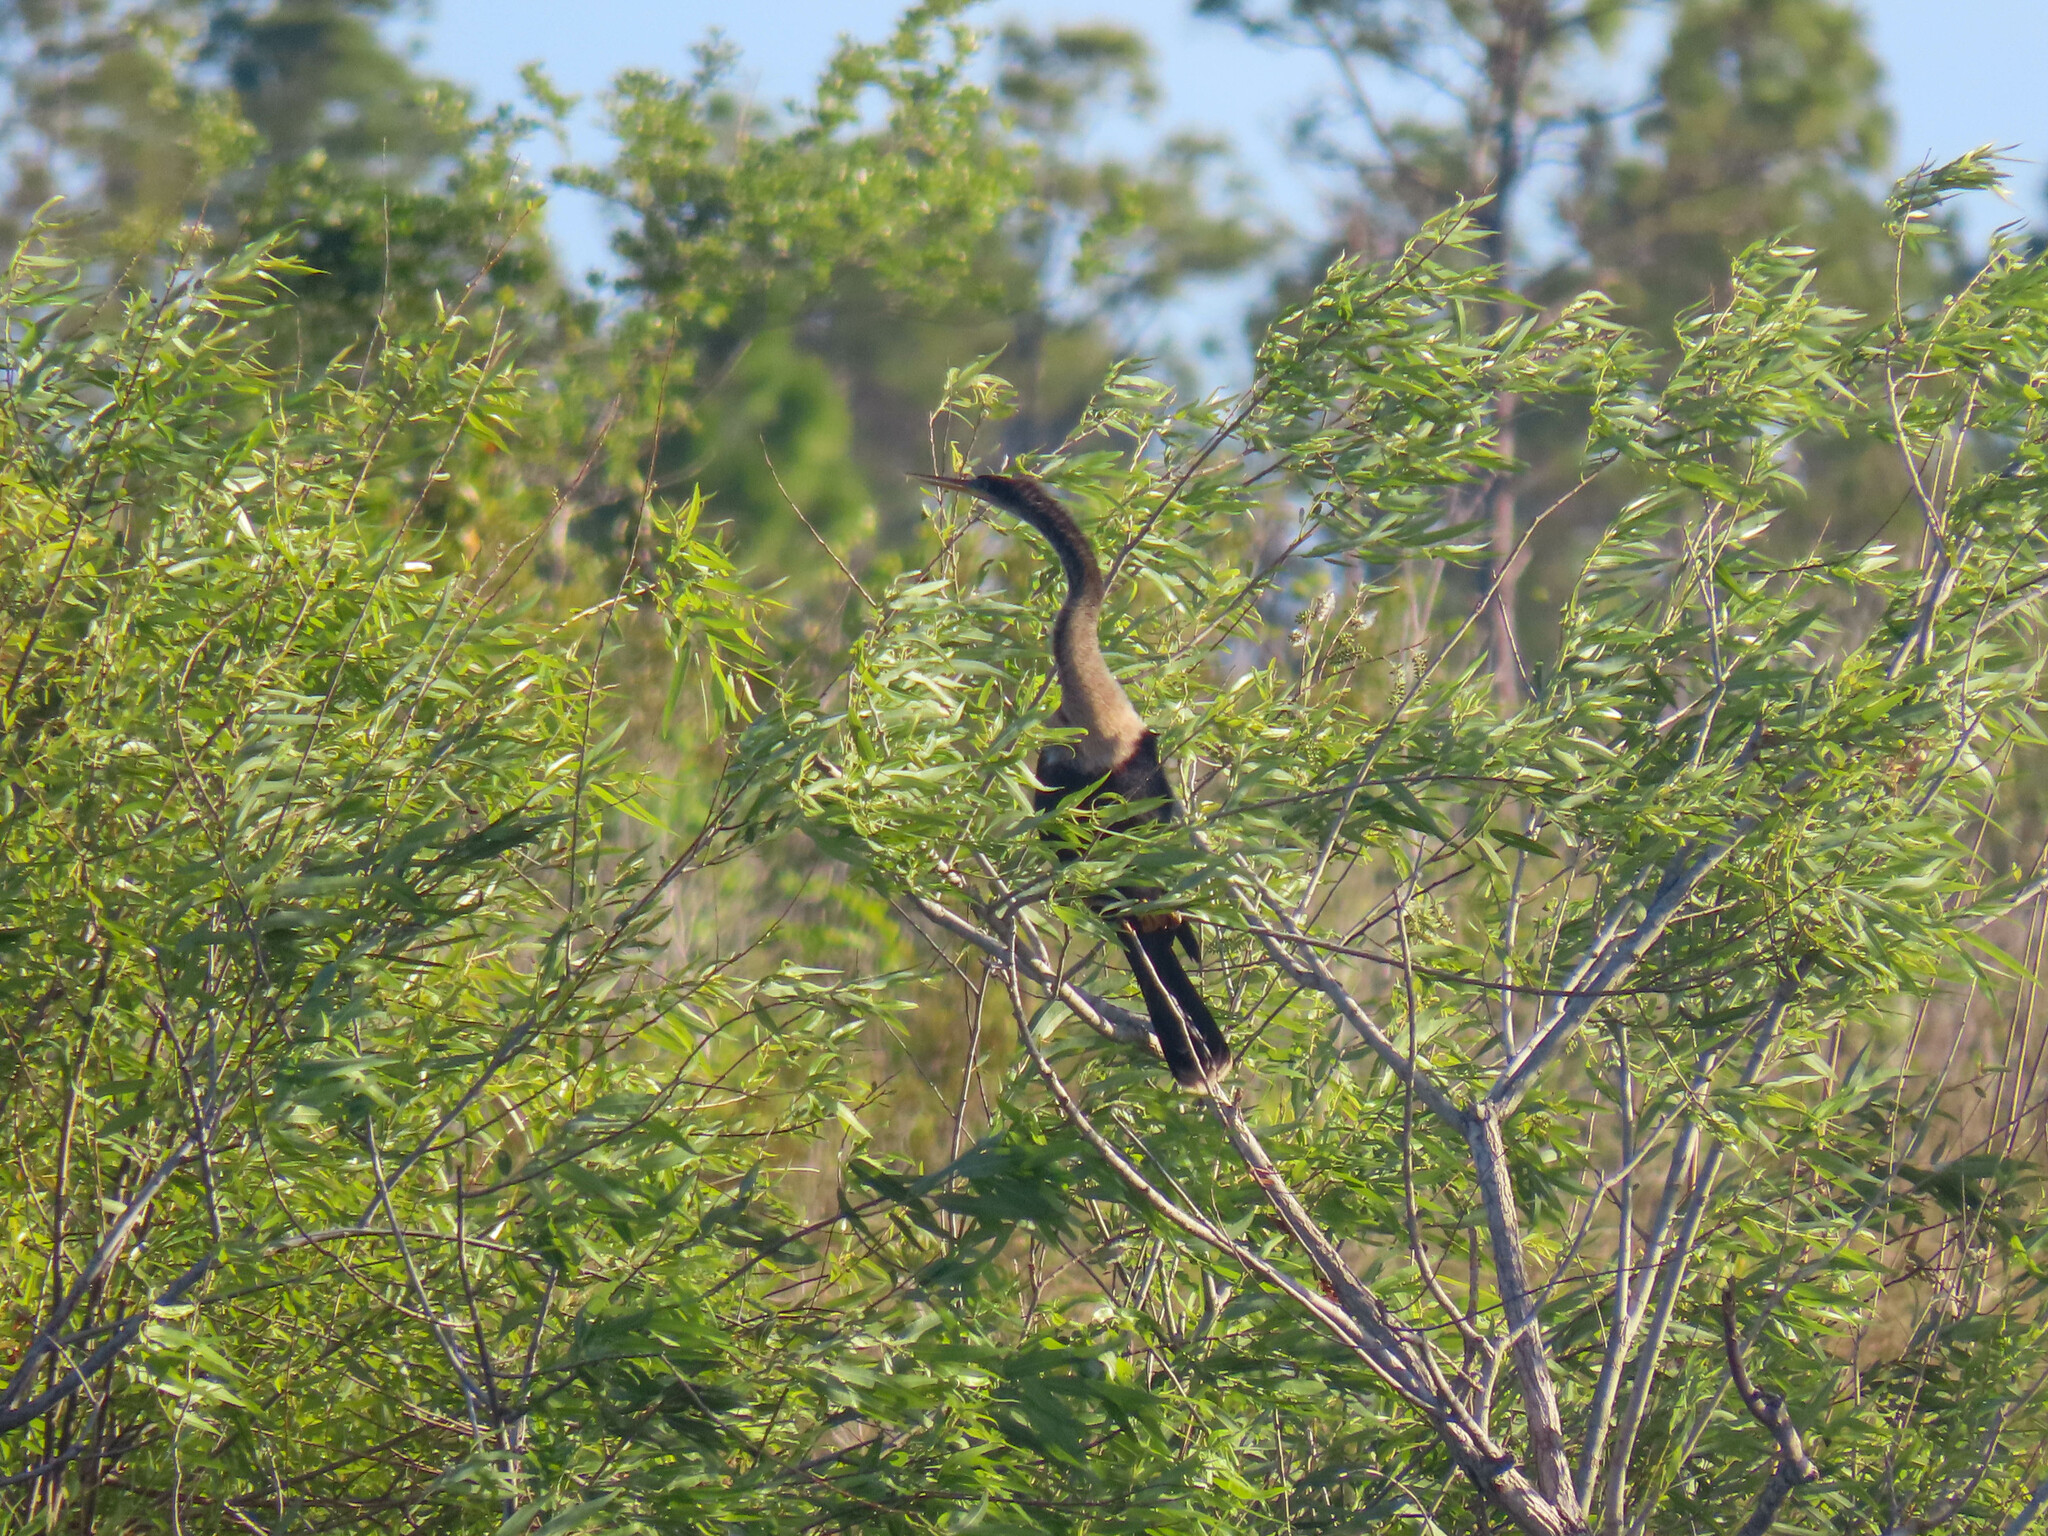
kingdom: Animalia
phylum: Chordata
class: Aves
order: Suliformes
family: Anhingidae
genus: Anhinga
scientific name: Anhinga anhinga
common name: Anhinga
